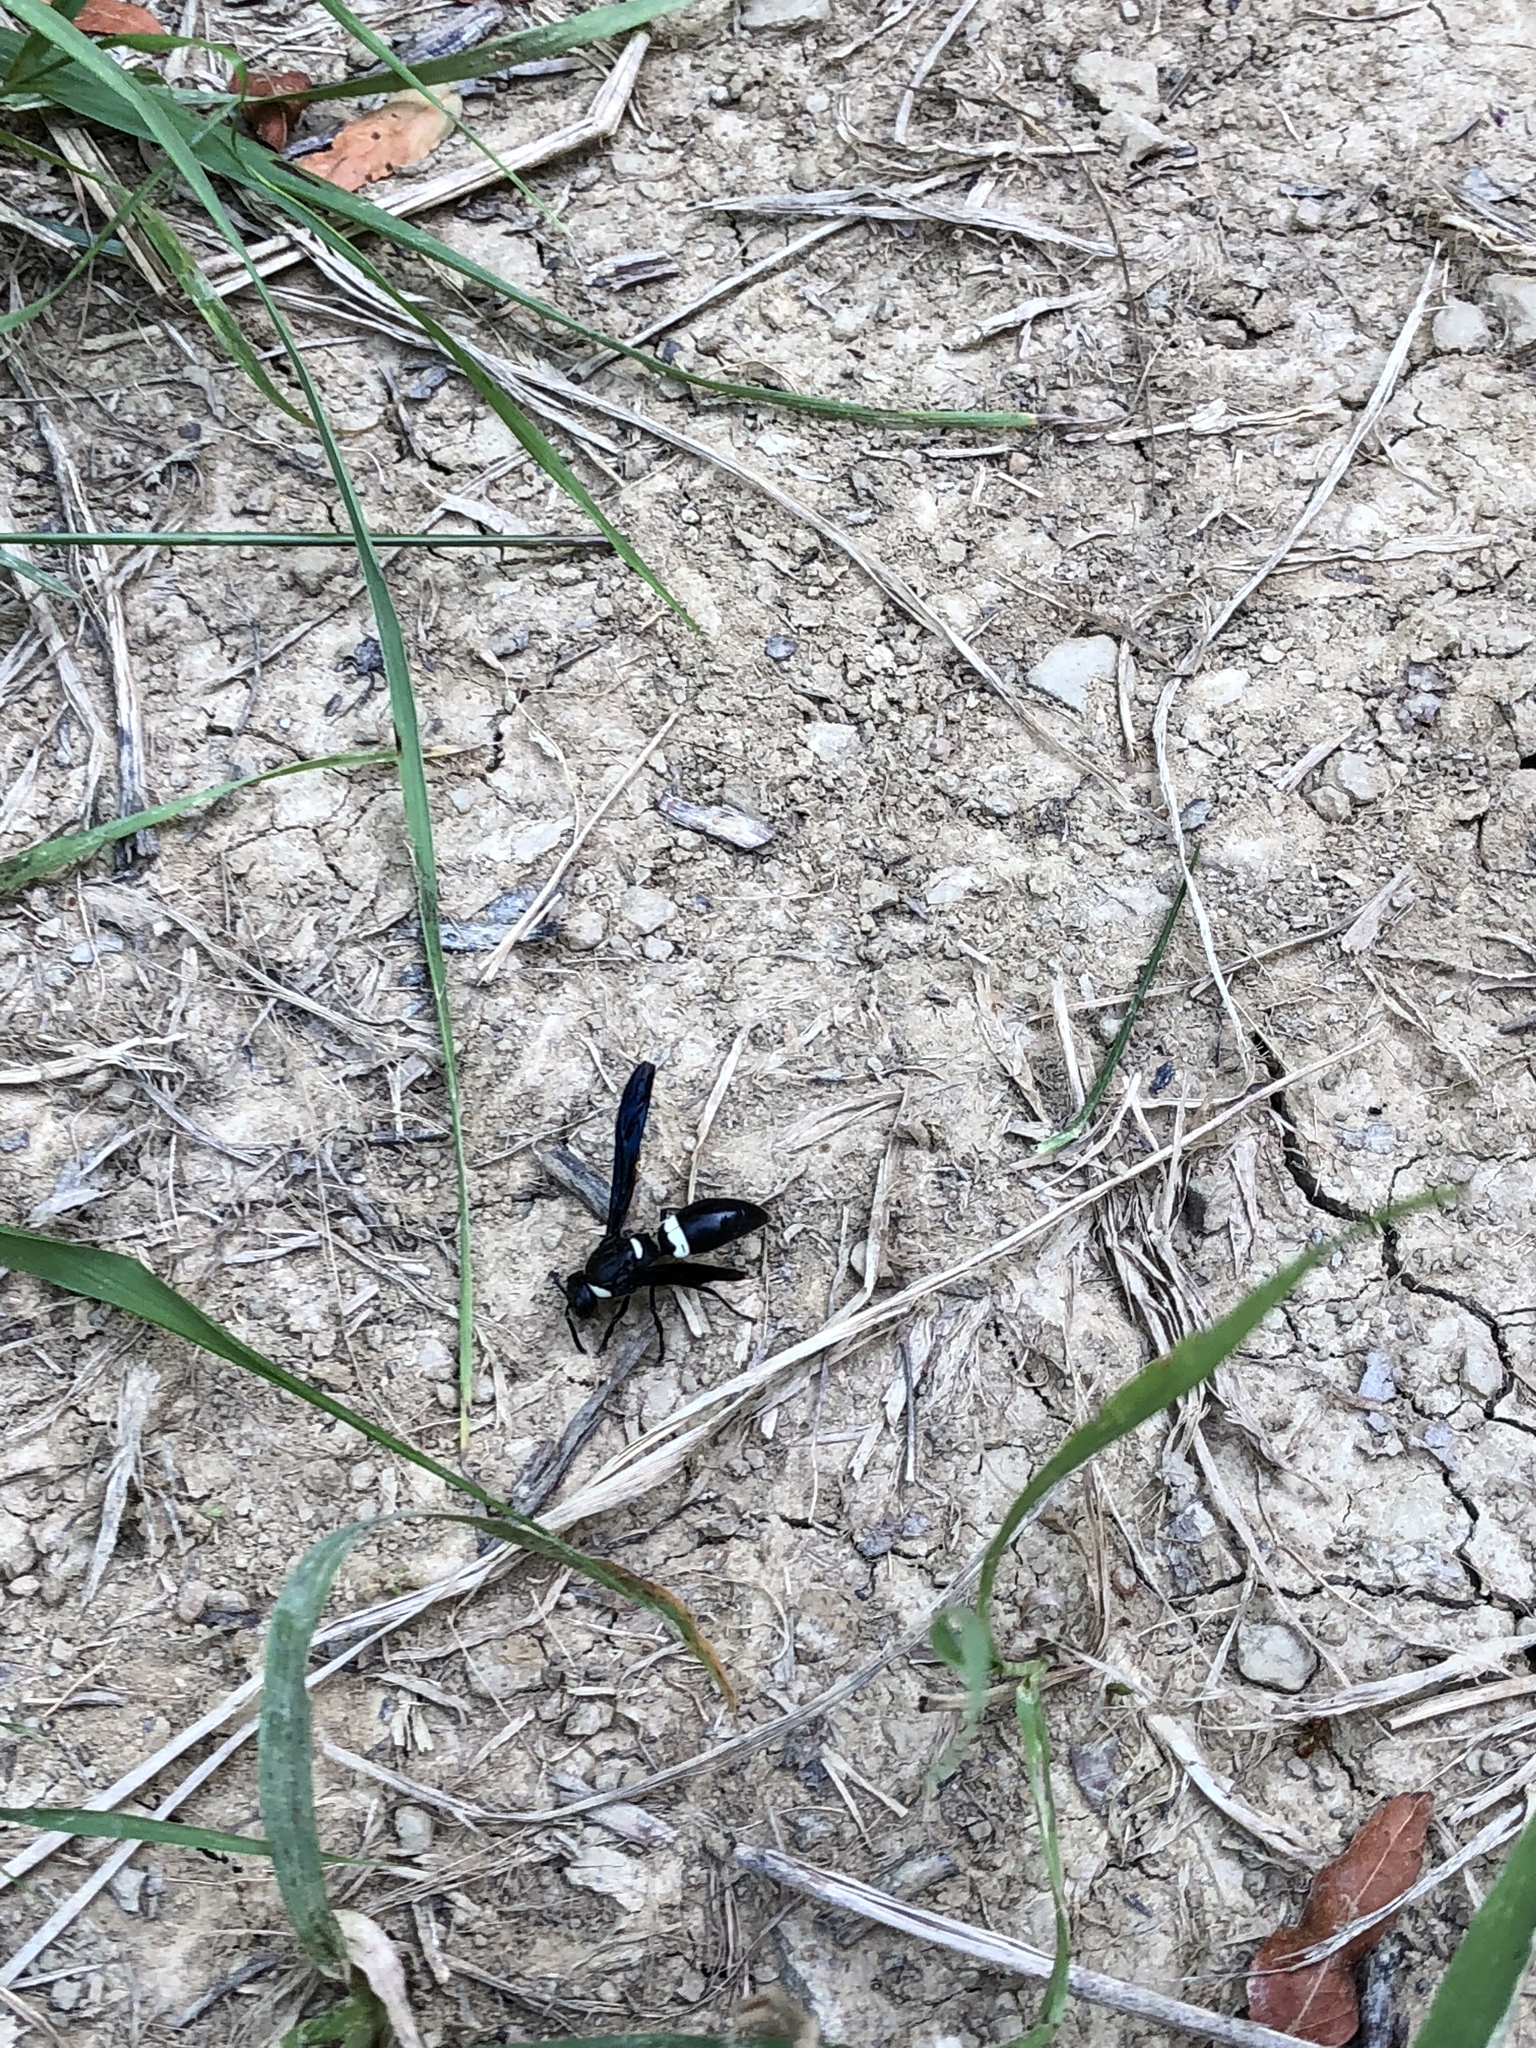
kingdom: Animalia
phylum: Arthropoda
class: Insecta
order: Hymenoptera
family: Eumenidae
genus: Monobia
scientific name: Monobia quadridens
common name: Four-toothed mason wasp
